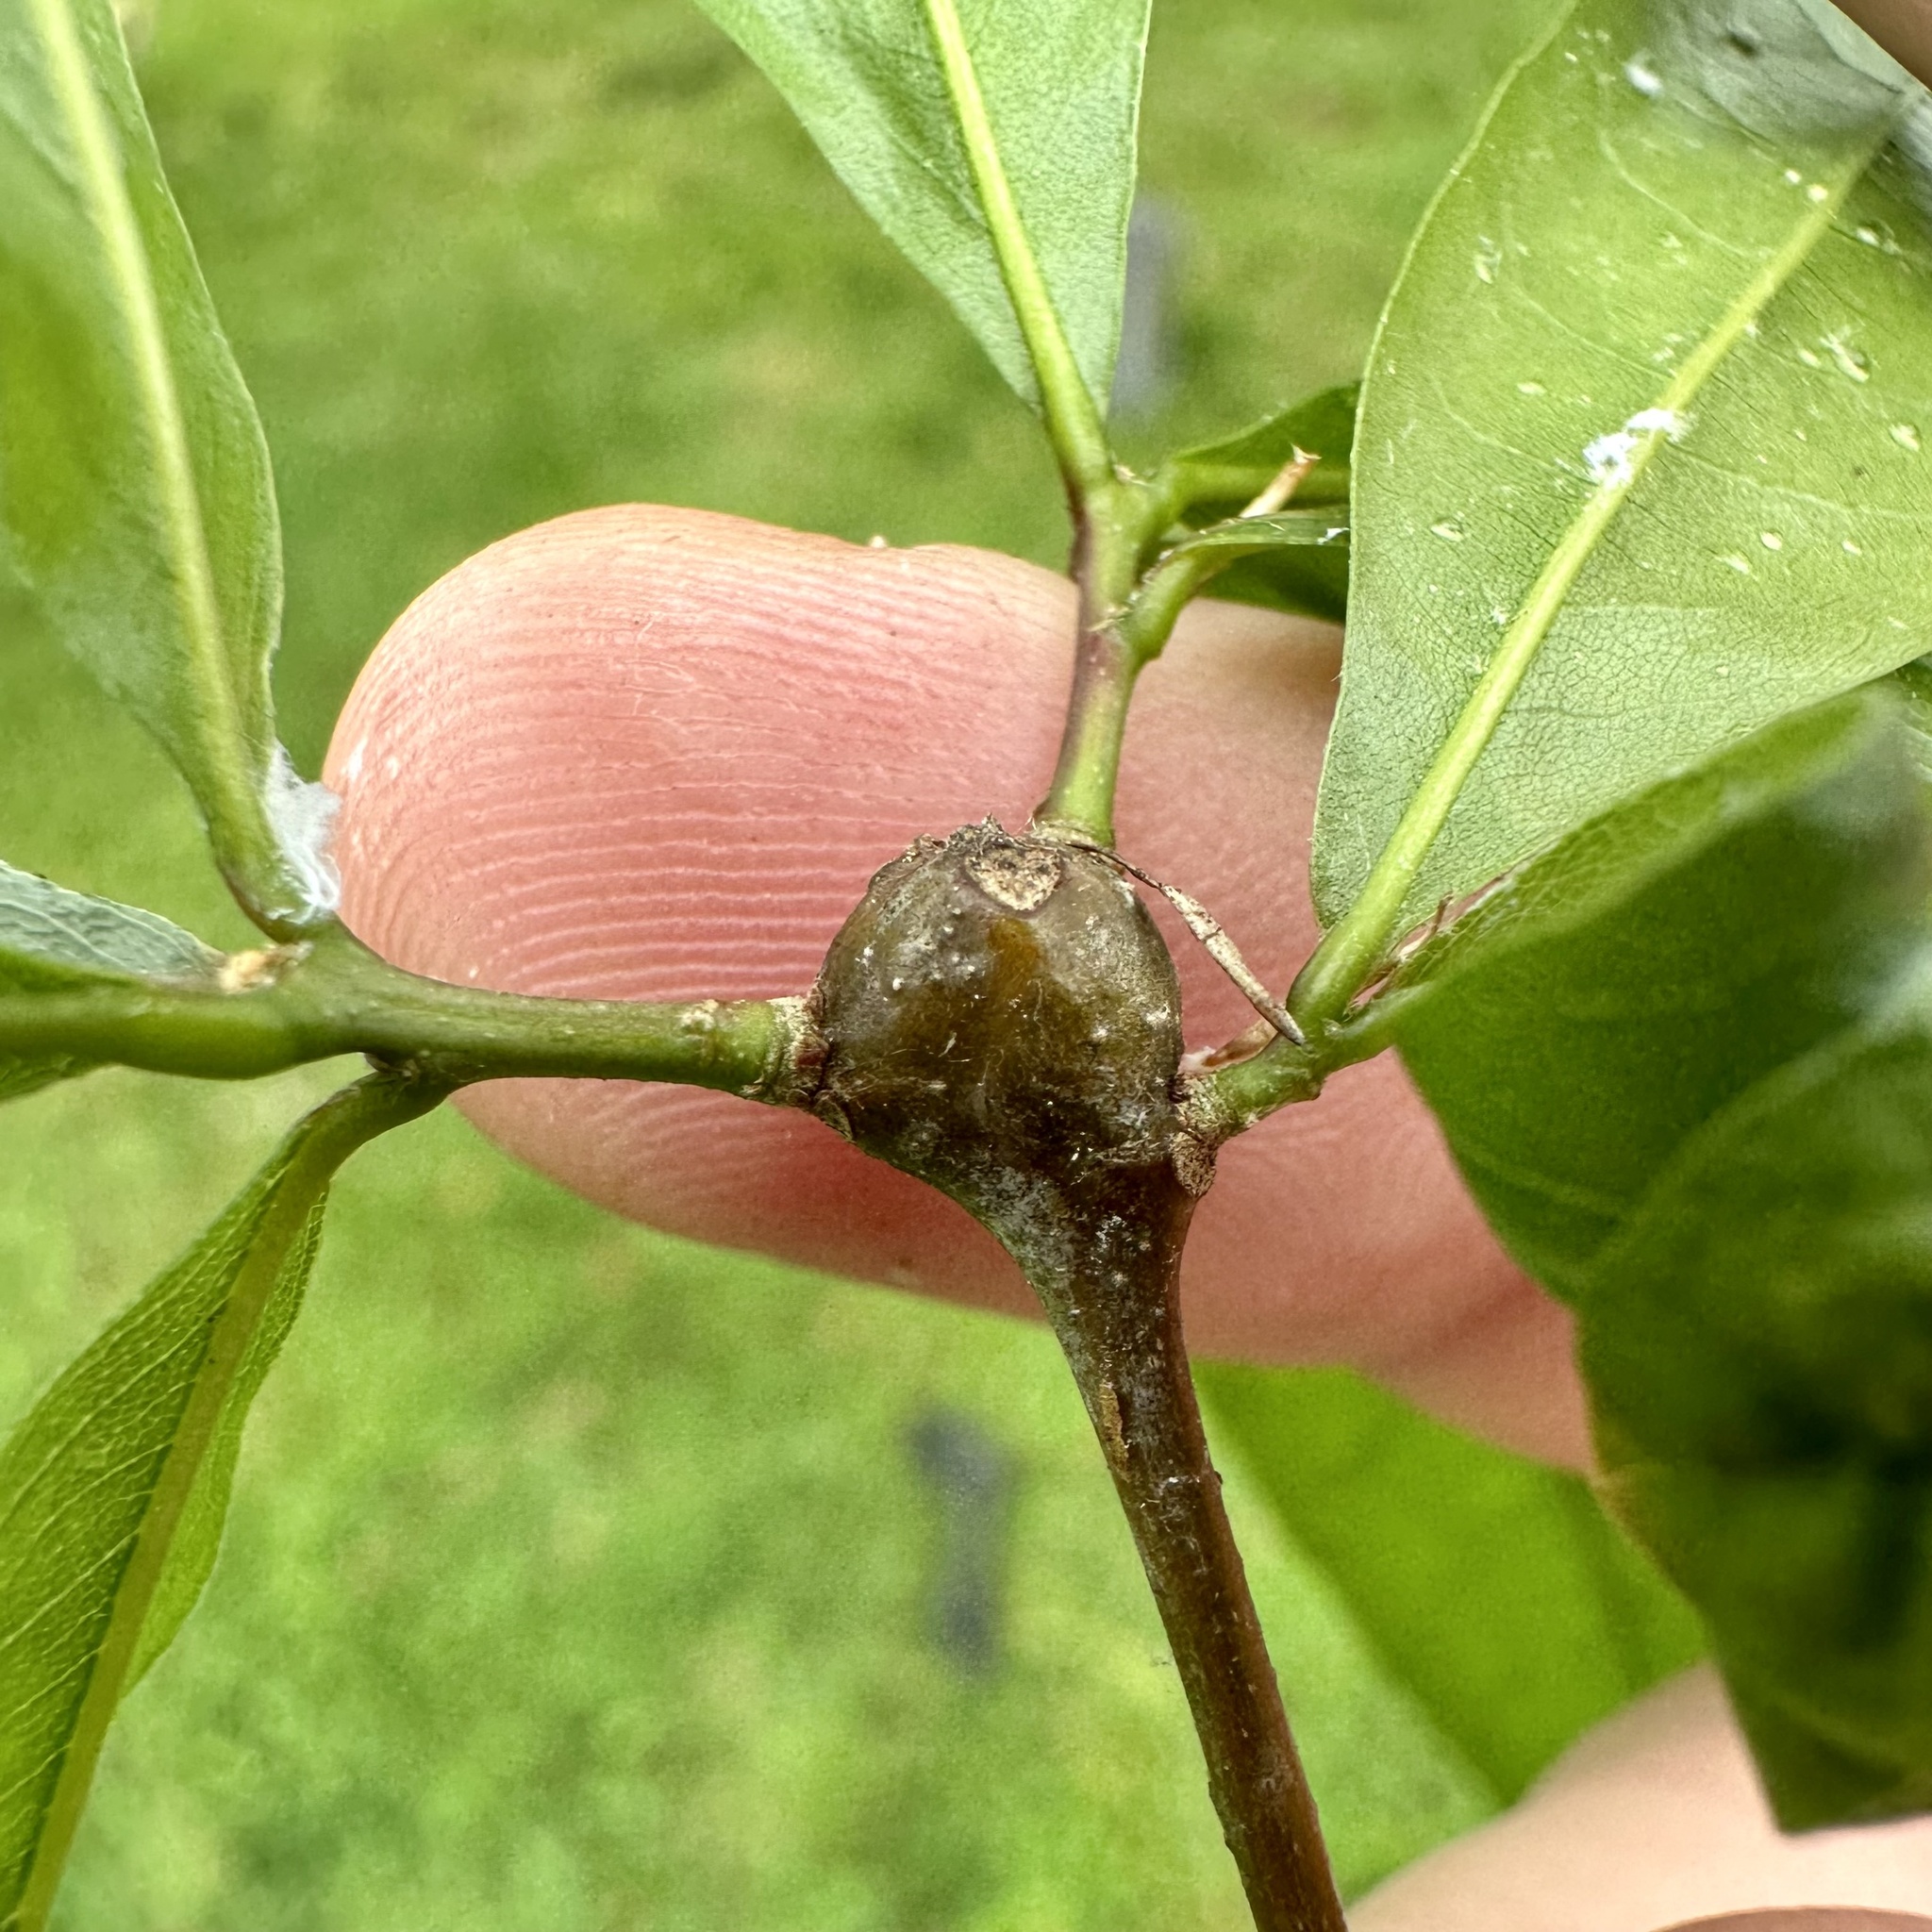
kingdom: Animalia
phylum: Arthropoda
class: Insecta
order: Hymenoptera
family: Cynipidae
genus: Zapatella
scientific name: Zapatella quercusphellos
